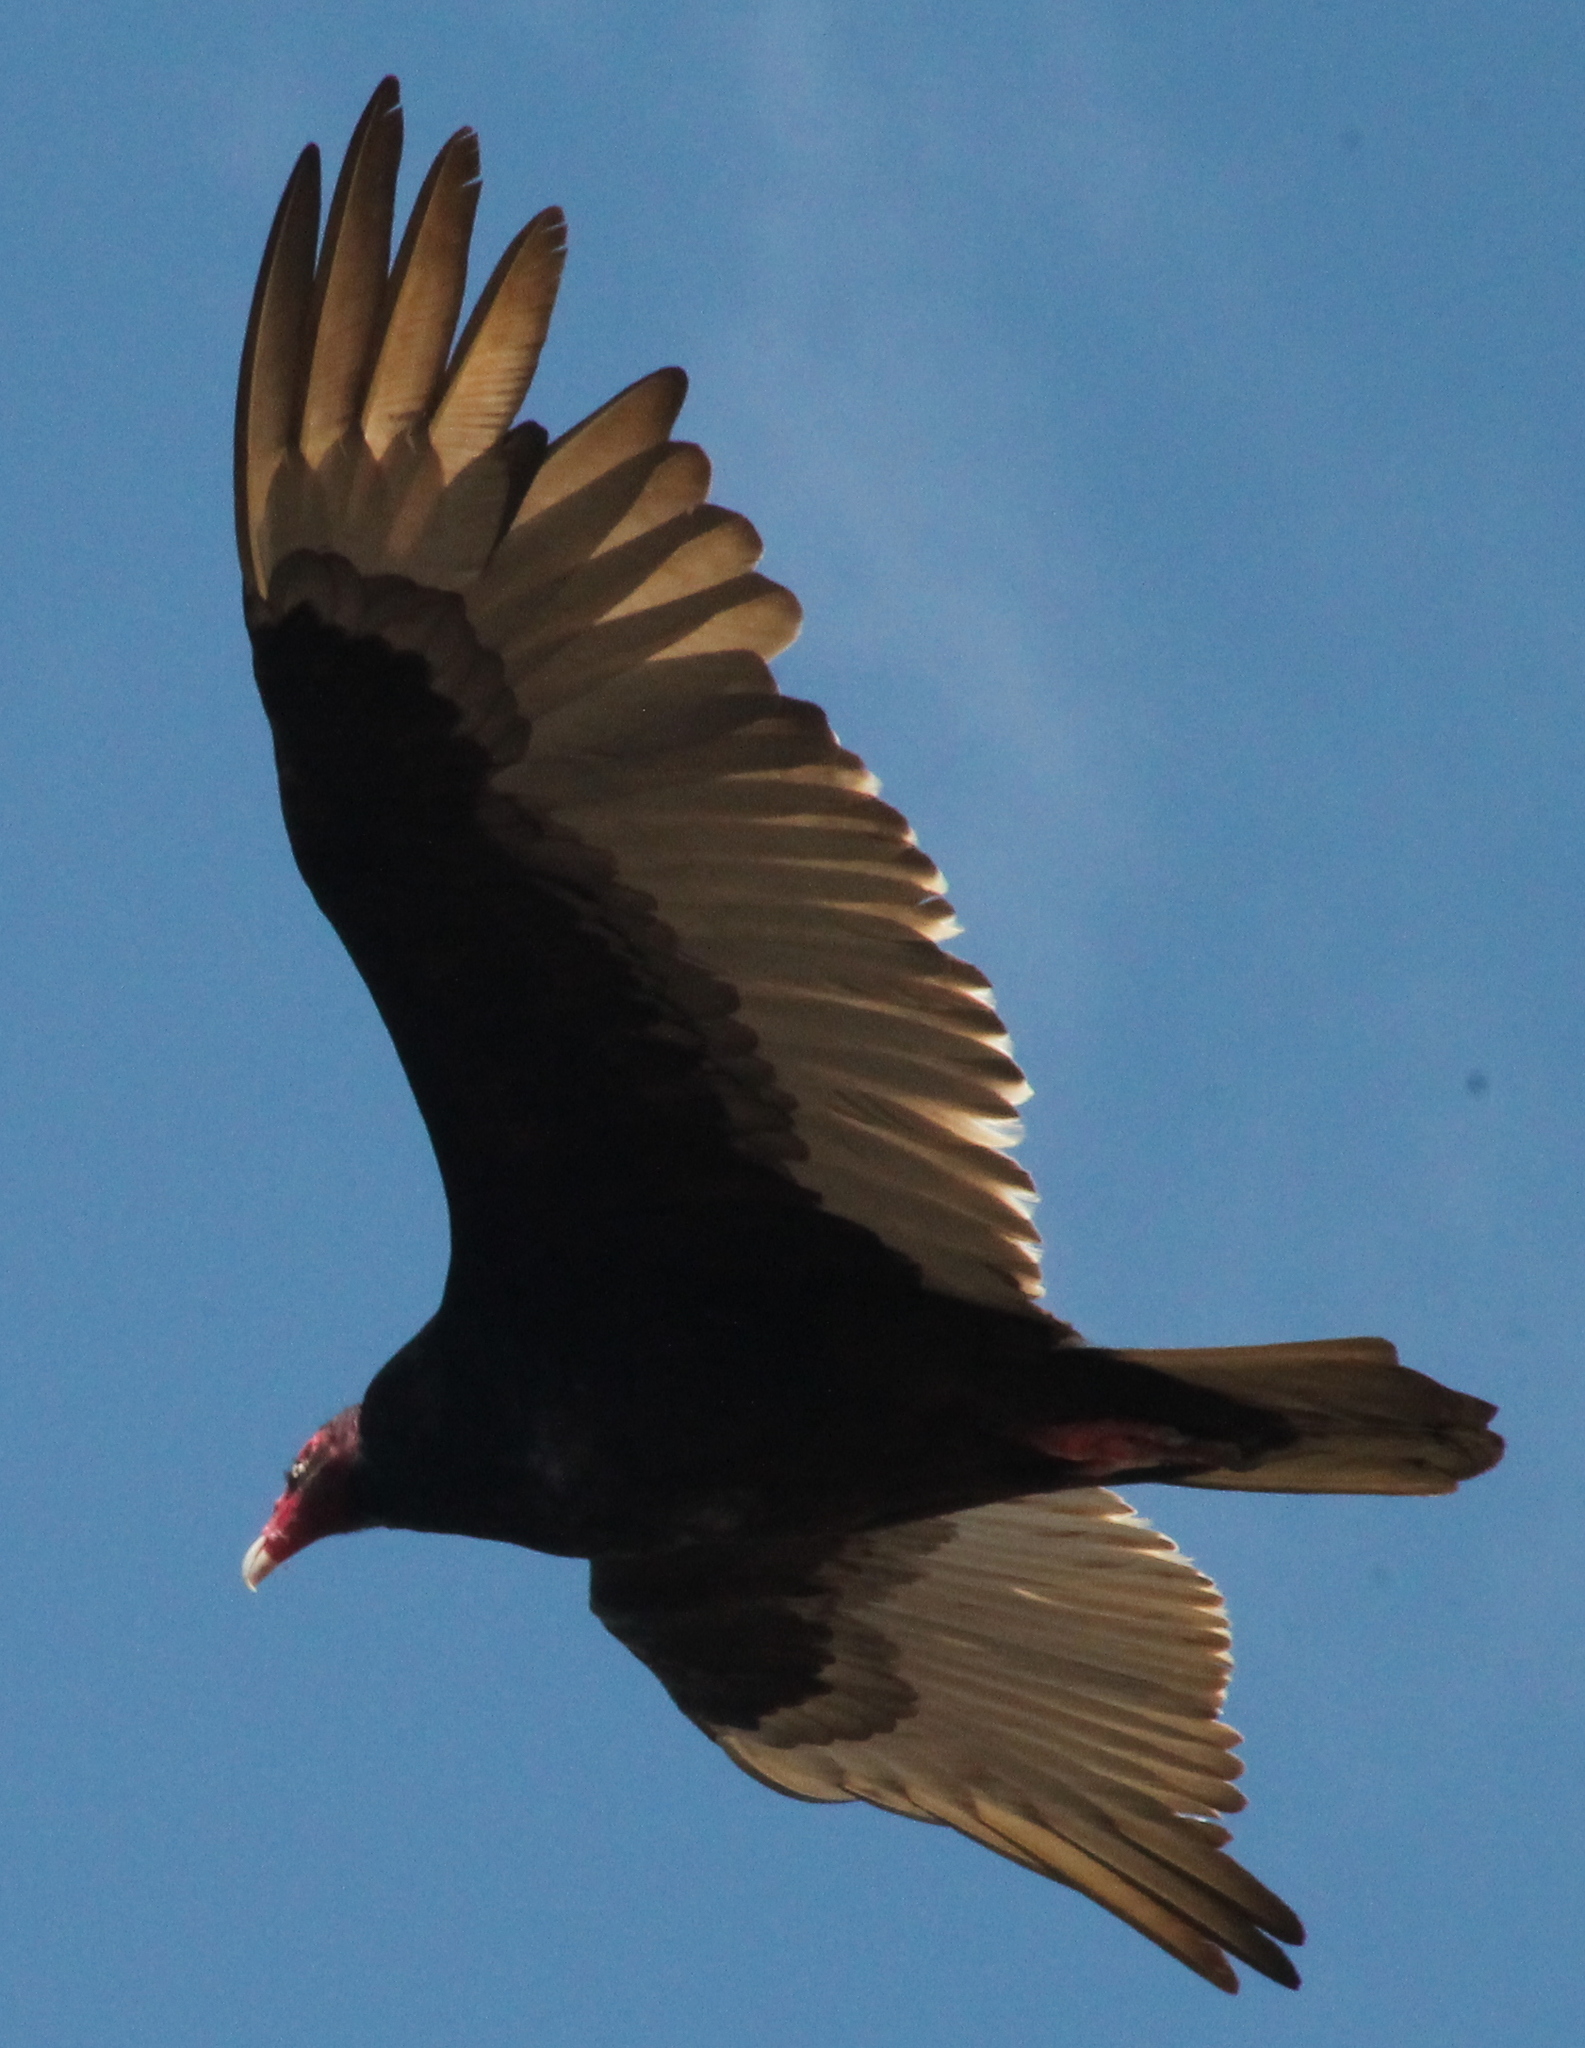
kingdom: Animalia
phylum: Chordata
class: Aves
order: Accipitriformes
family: Cathartidae
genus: Cathartes
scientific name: Cathartes aura
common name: Turkey vulture
